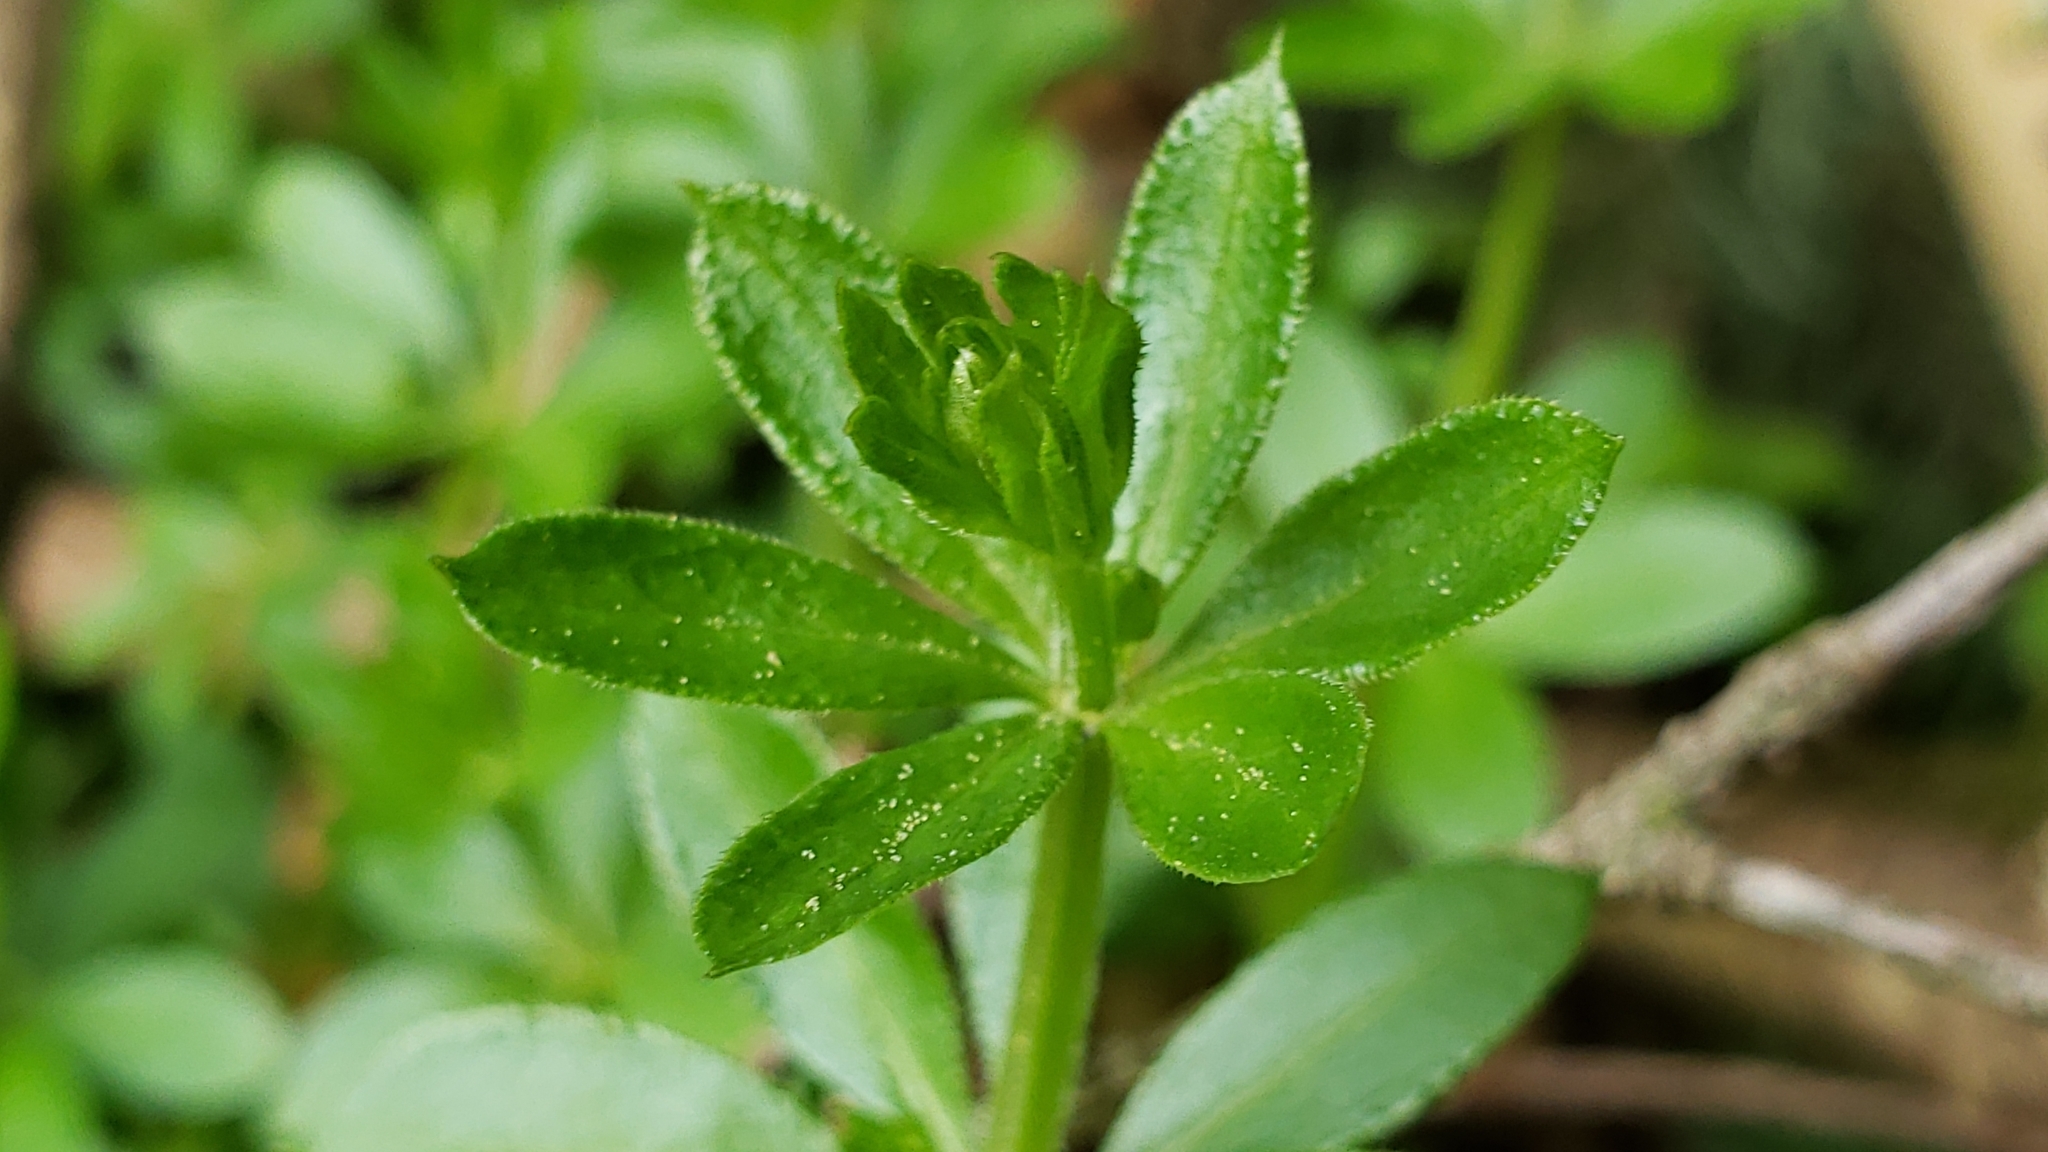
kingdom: Plantae
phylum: Tracheophyta
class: Magnoliopsida
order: Gentianales
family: Rubiaceae
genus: Galium
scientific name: Galium triflorum
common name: Fragrant bedstraw
